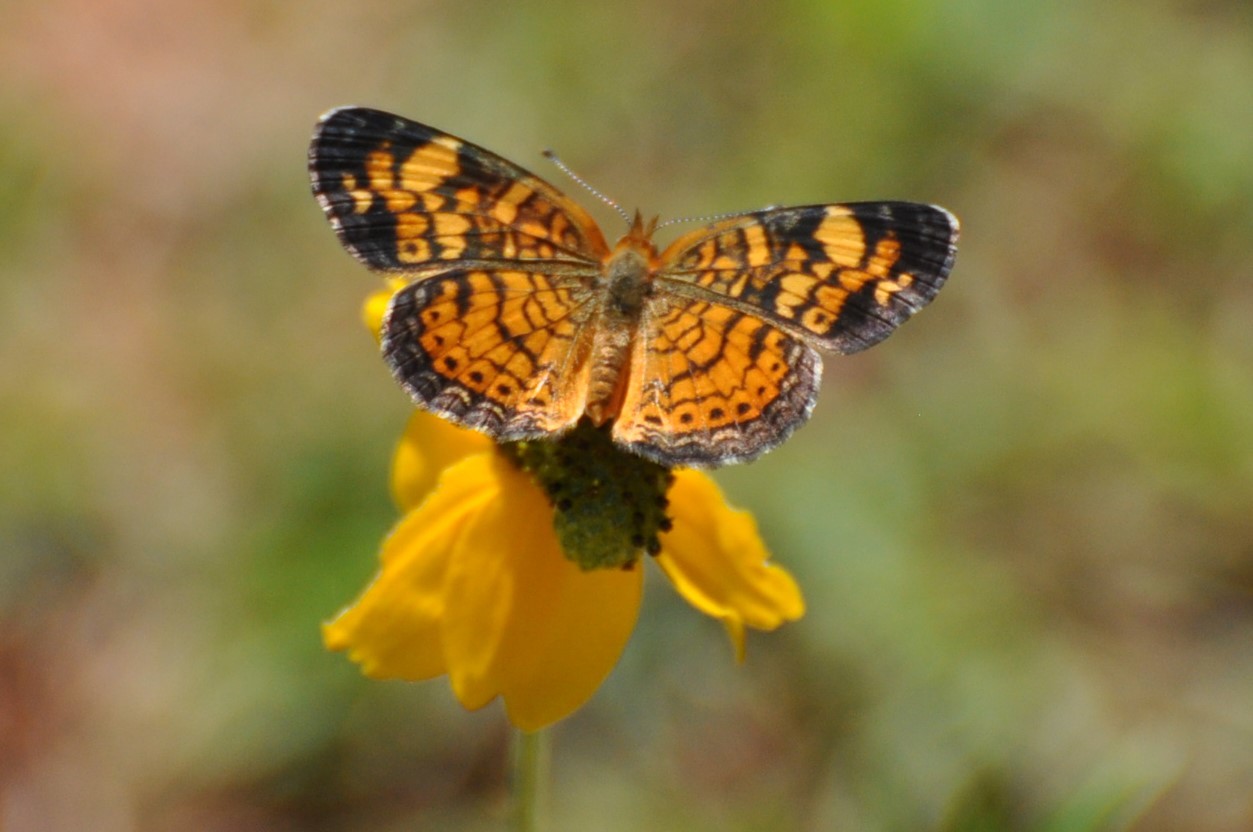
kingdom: Animalia
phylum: Arthropoda
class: Insecta
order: Lepidoptera
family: Nymphalidae
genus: Phyciodes
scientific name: Phyciodes tharos
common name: Pearl crescent
